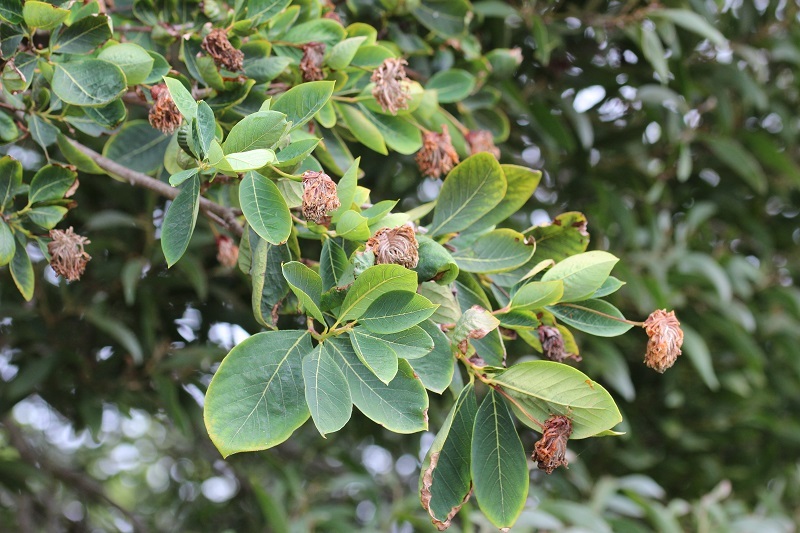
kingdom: Plantae
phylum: Tracheophyta
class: Magnoliopsida
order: Malvales
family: Thymelaeaceae
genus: Dais
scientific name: Dais cotinifolia
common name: Pompon tree
